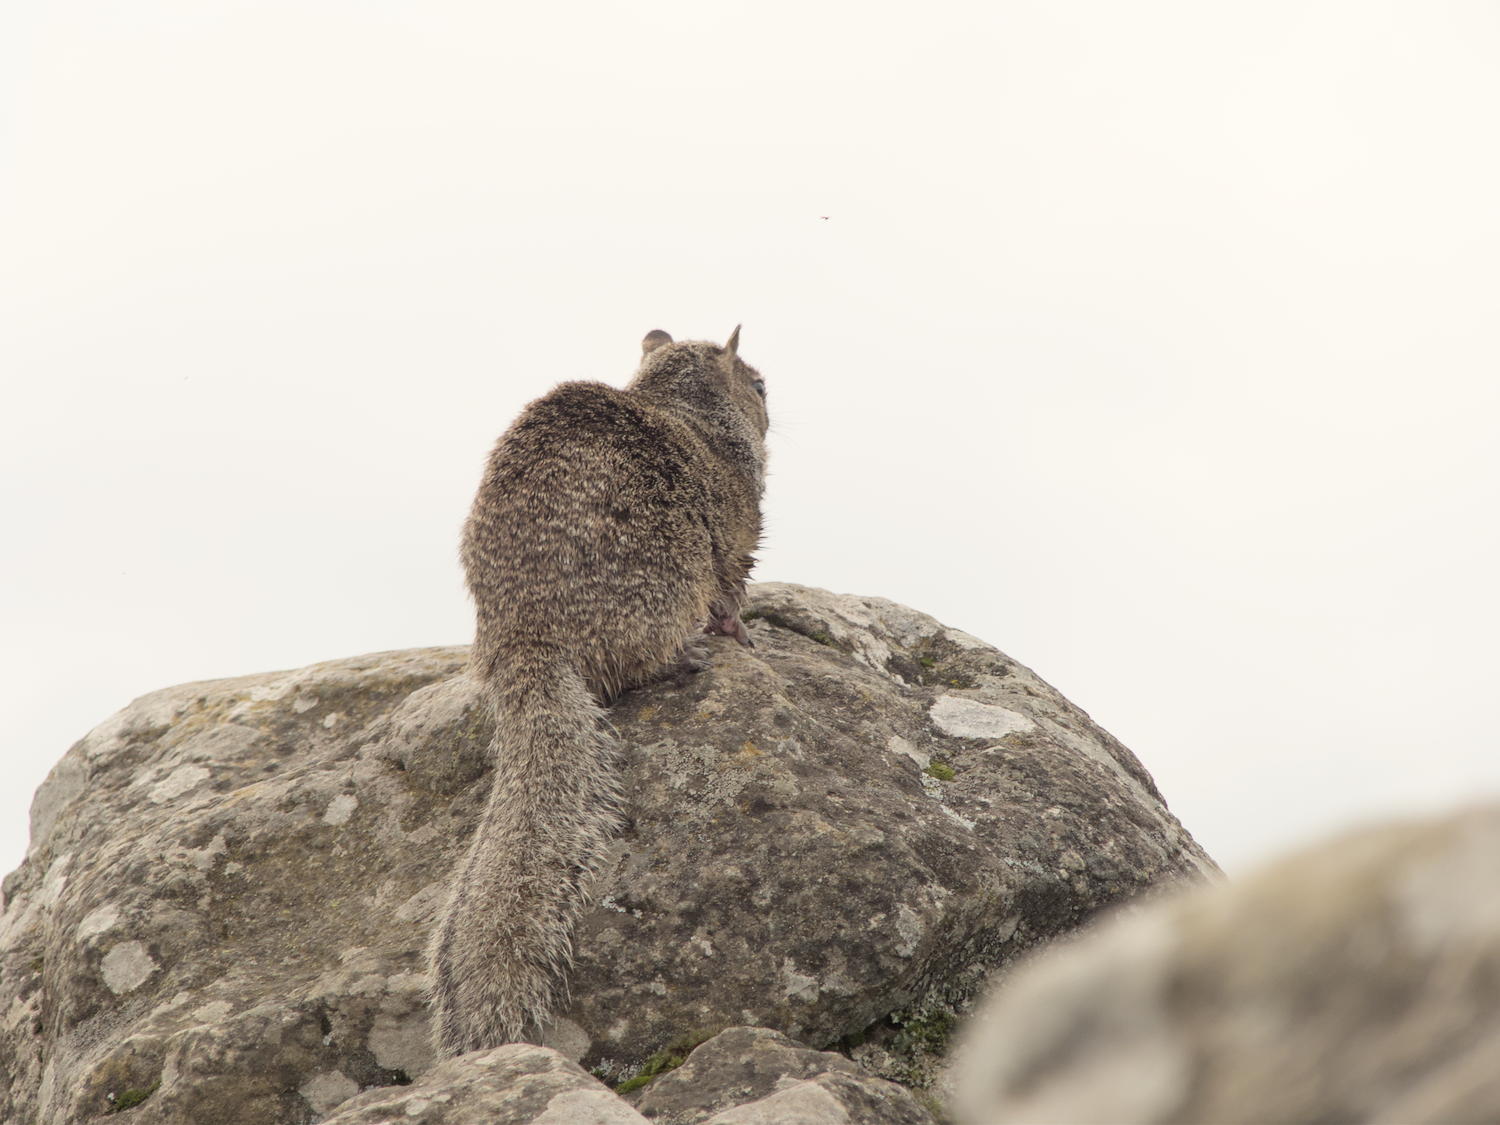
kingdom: Animalia
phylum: Chordata
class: Mammalia
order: Rodentia
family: Sciuridae
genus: Otospermophilus
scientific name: Otospermophilus beecheyi
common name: California ground squirrel
